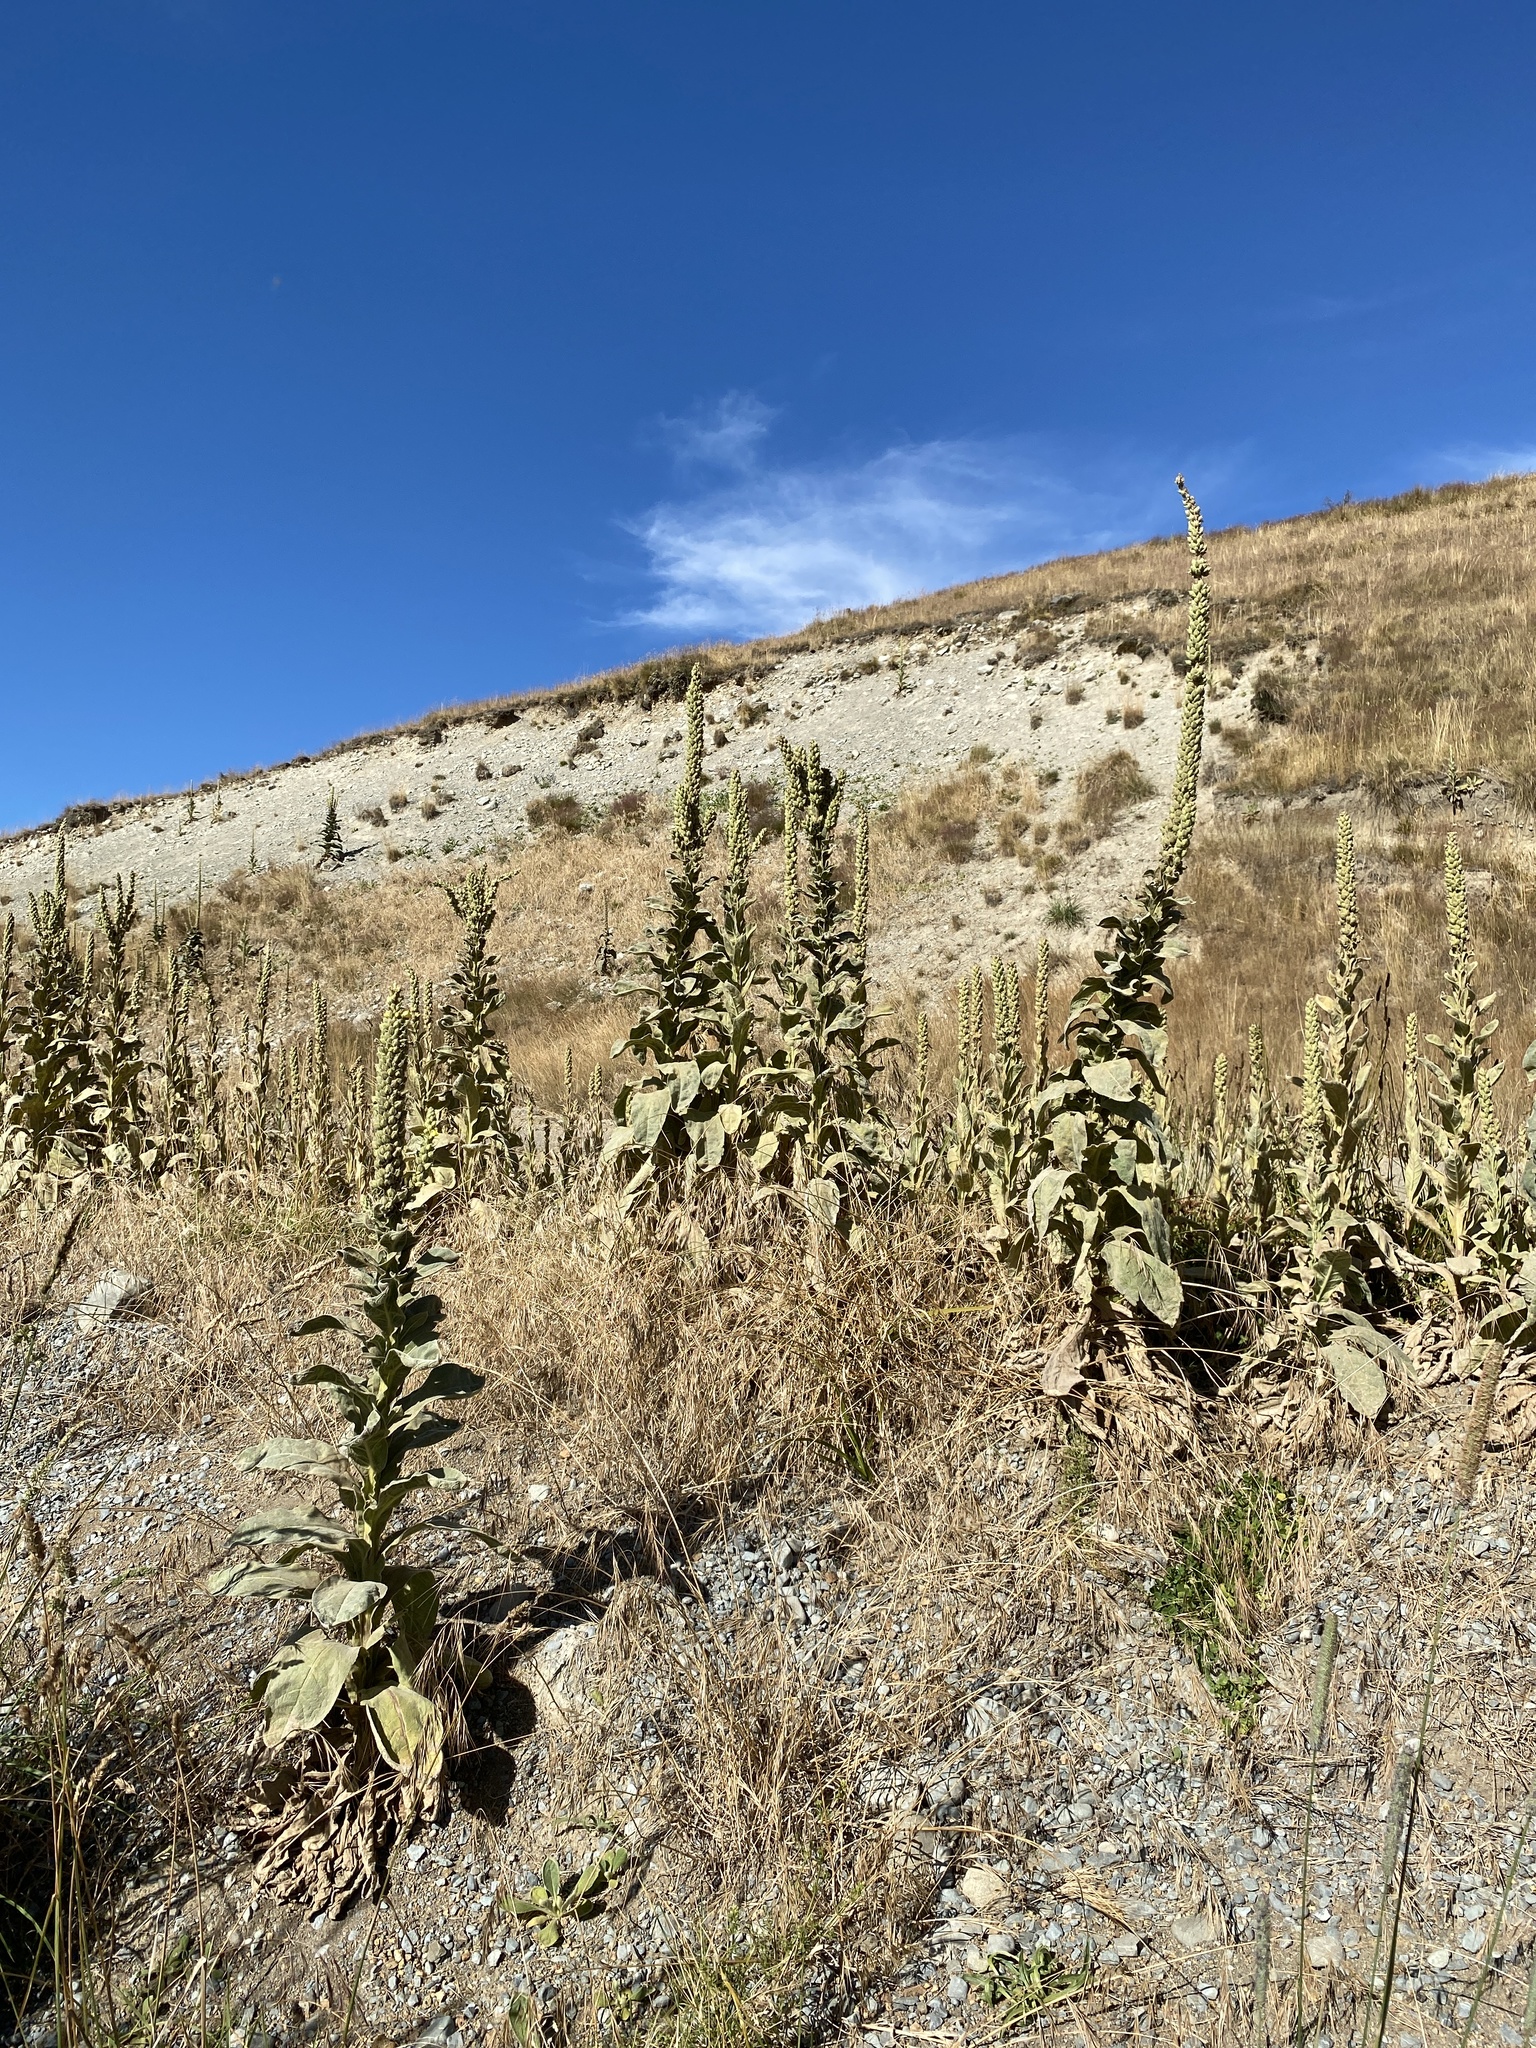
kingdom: Plantae
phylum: Tracheophyta
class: Magnoliopsida
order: Lamiales
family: Scrophulariaceae
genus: Verbascum
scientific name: Verbascum thapsus
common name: Common mullein
